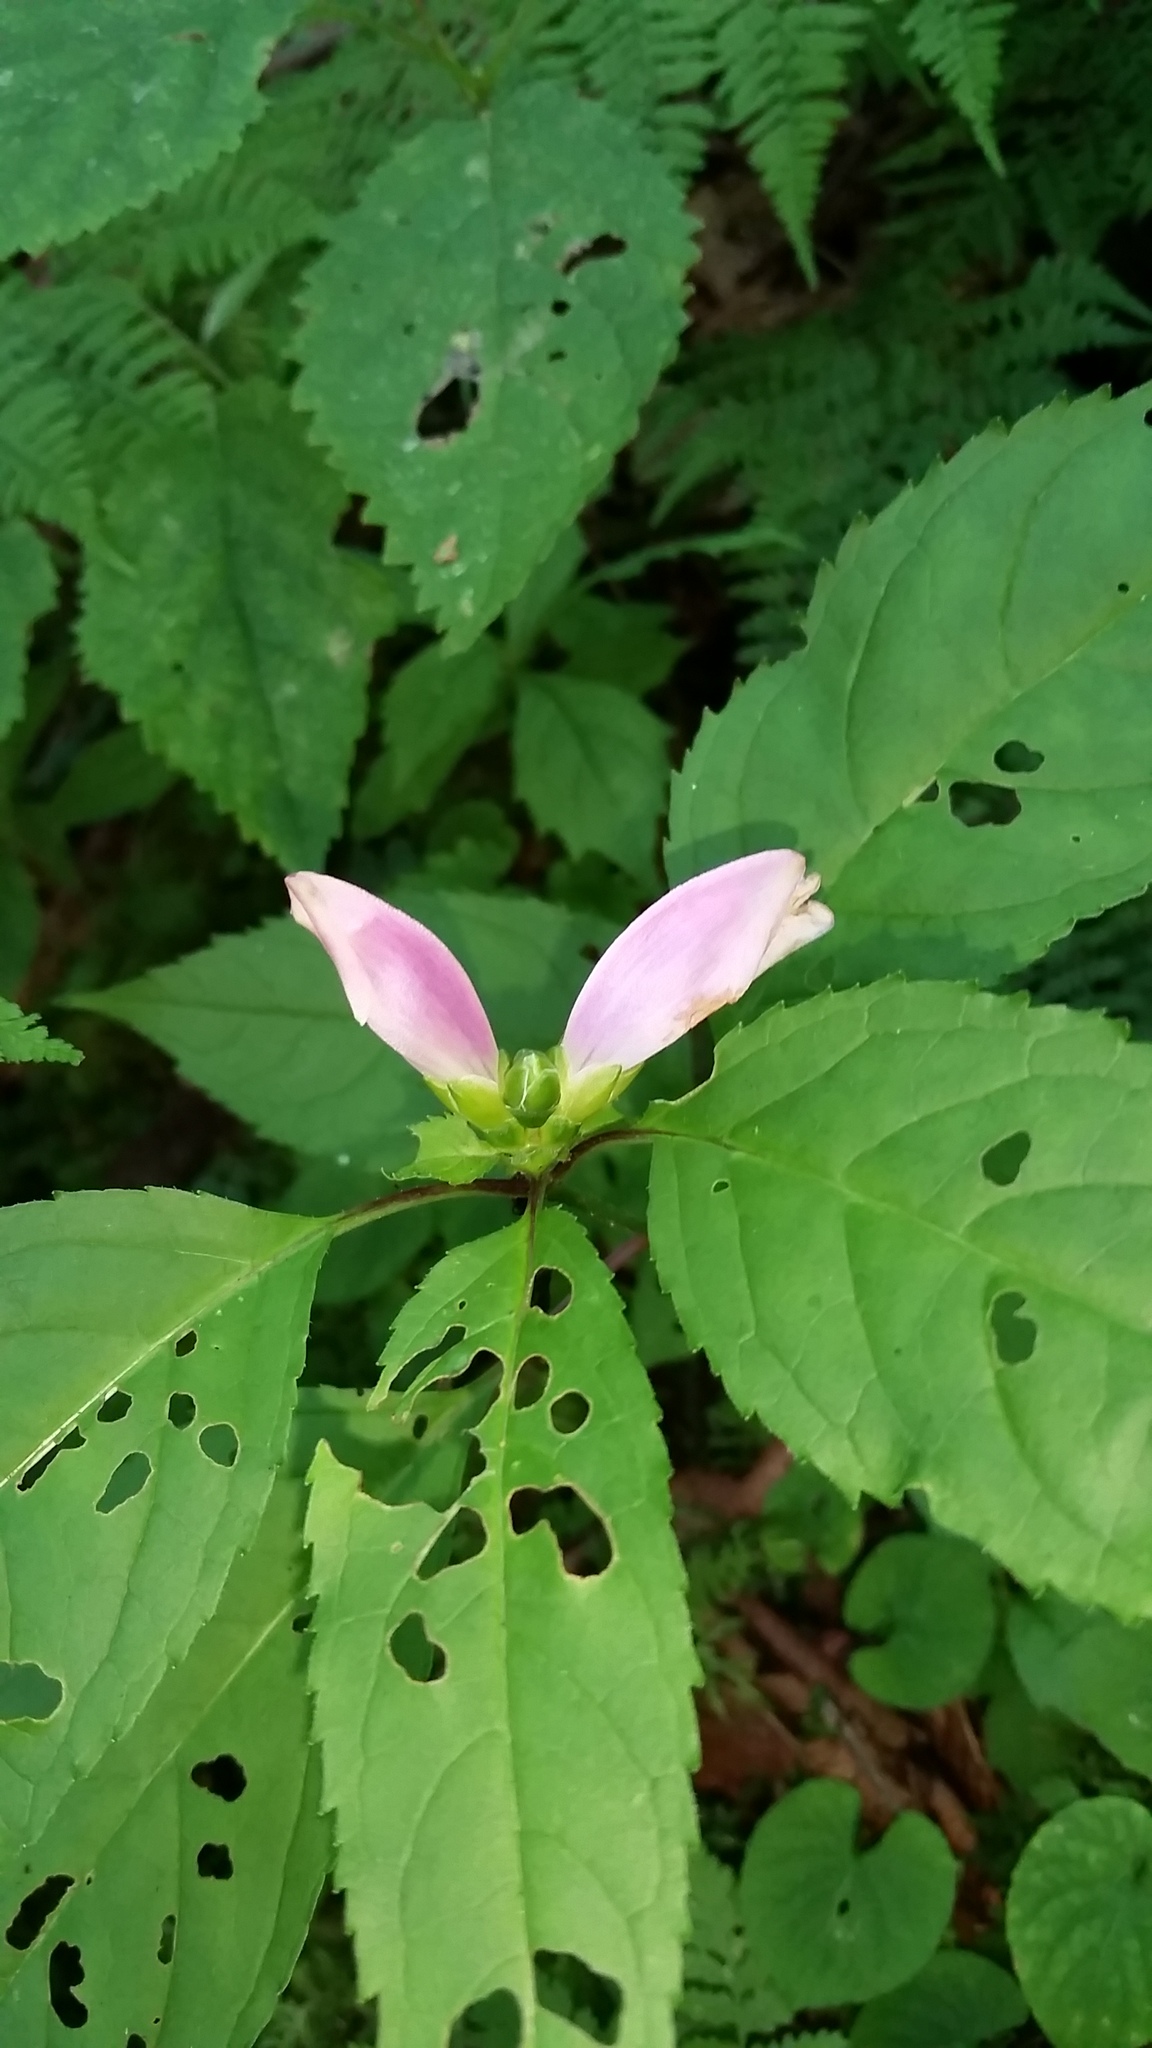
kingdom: Plantae
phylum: Tracheophyta
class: Magnoliopsida
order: Lamiales
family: Plantaginaceae
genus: Chelone
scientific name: Chelone lyonii
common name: Pink turtlehead
